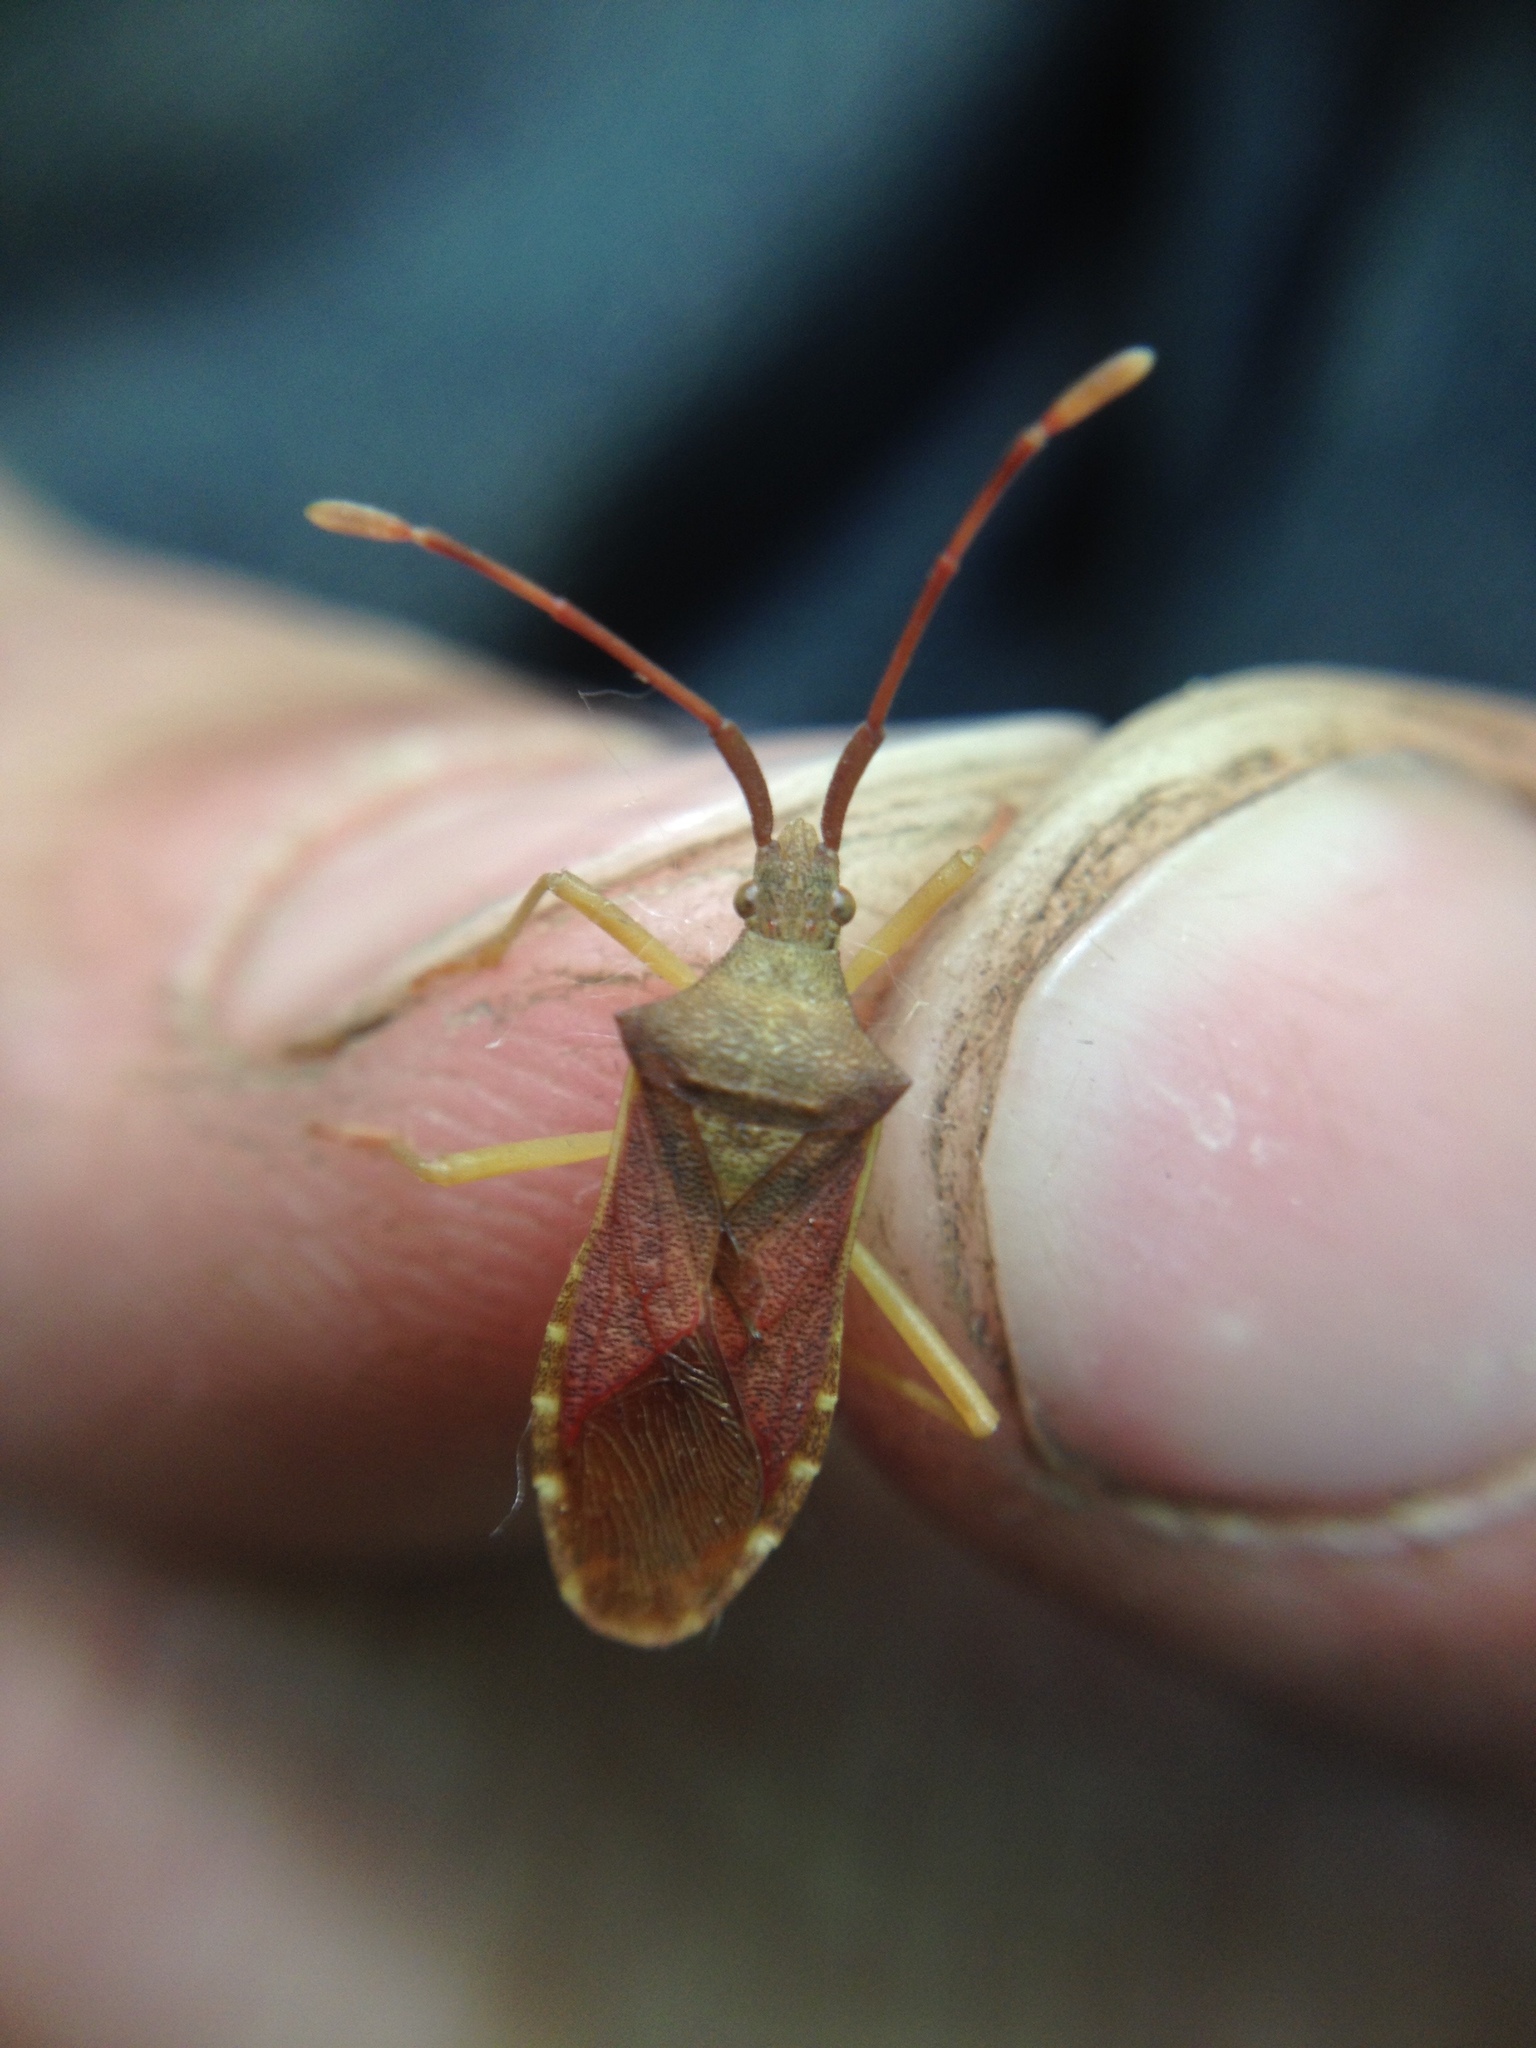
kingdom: Animalia
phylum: Arthropoda
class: Insecta
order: Hemiptera
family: Coreidae
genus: Gonocerus
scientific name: Gonocerus acuteangulatus
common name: Box bug
